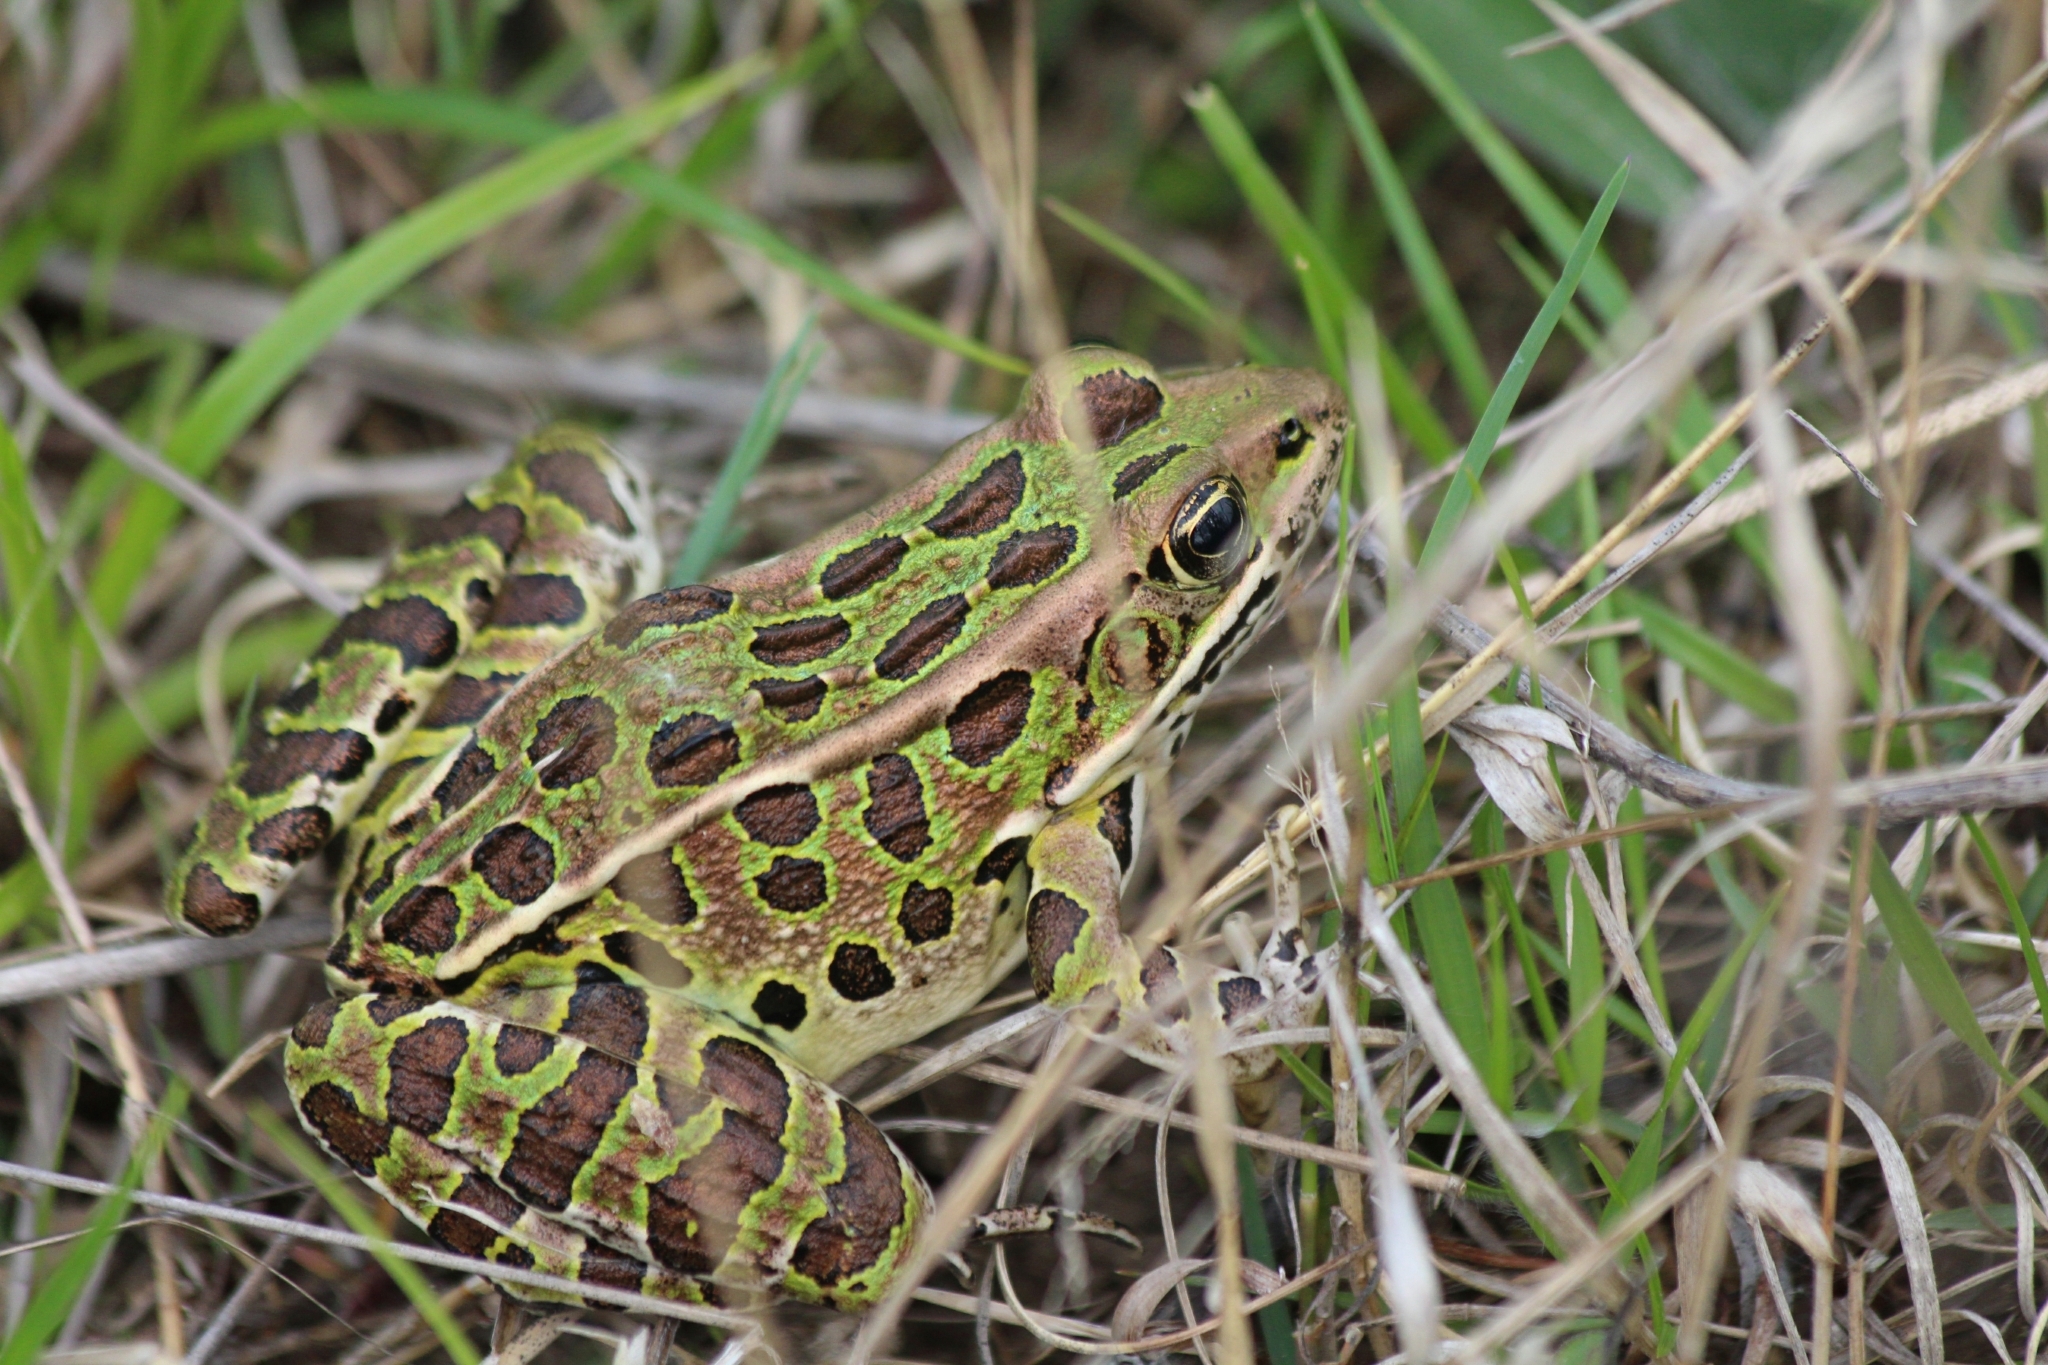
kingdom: Animalia
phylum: Chordata
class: Amphibia
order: Anura
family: Ranidae
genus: Lithobates
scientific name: Lithobates pipiens
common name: Northern leopard frog
